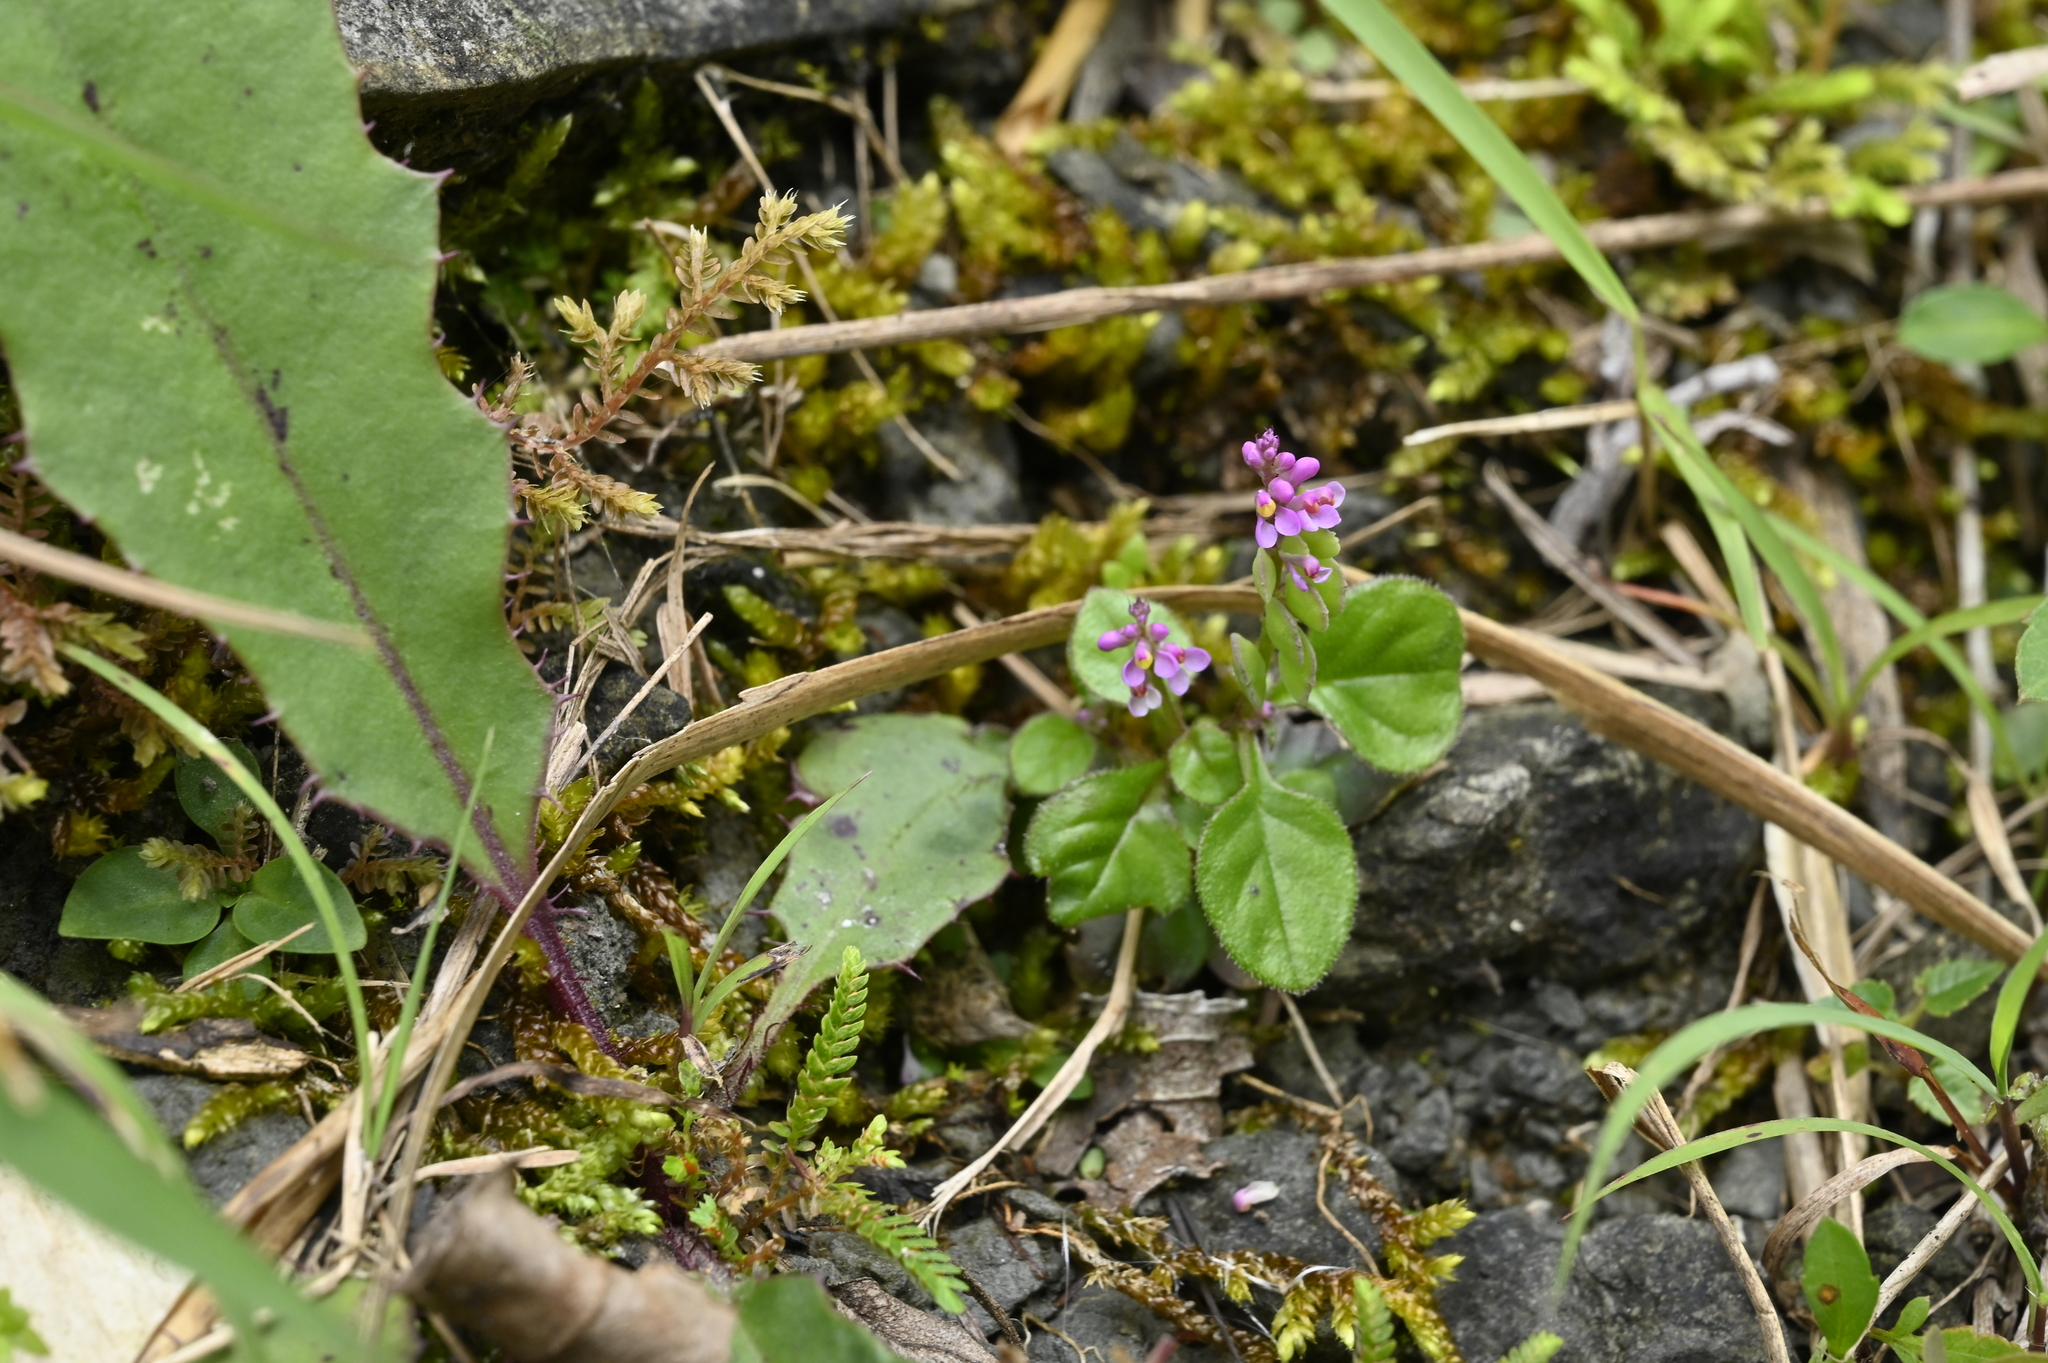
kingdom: Plantae
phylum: Tracheophyta
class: Magnoliopsida
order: Fabales
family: Polygalaceae
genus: Polygala
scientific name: Polygala tatarinowii
